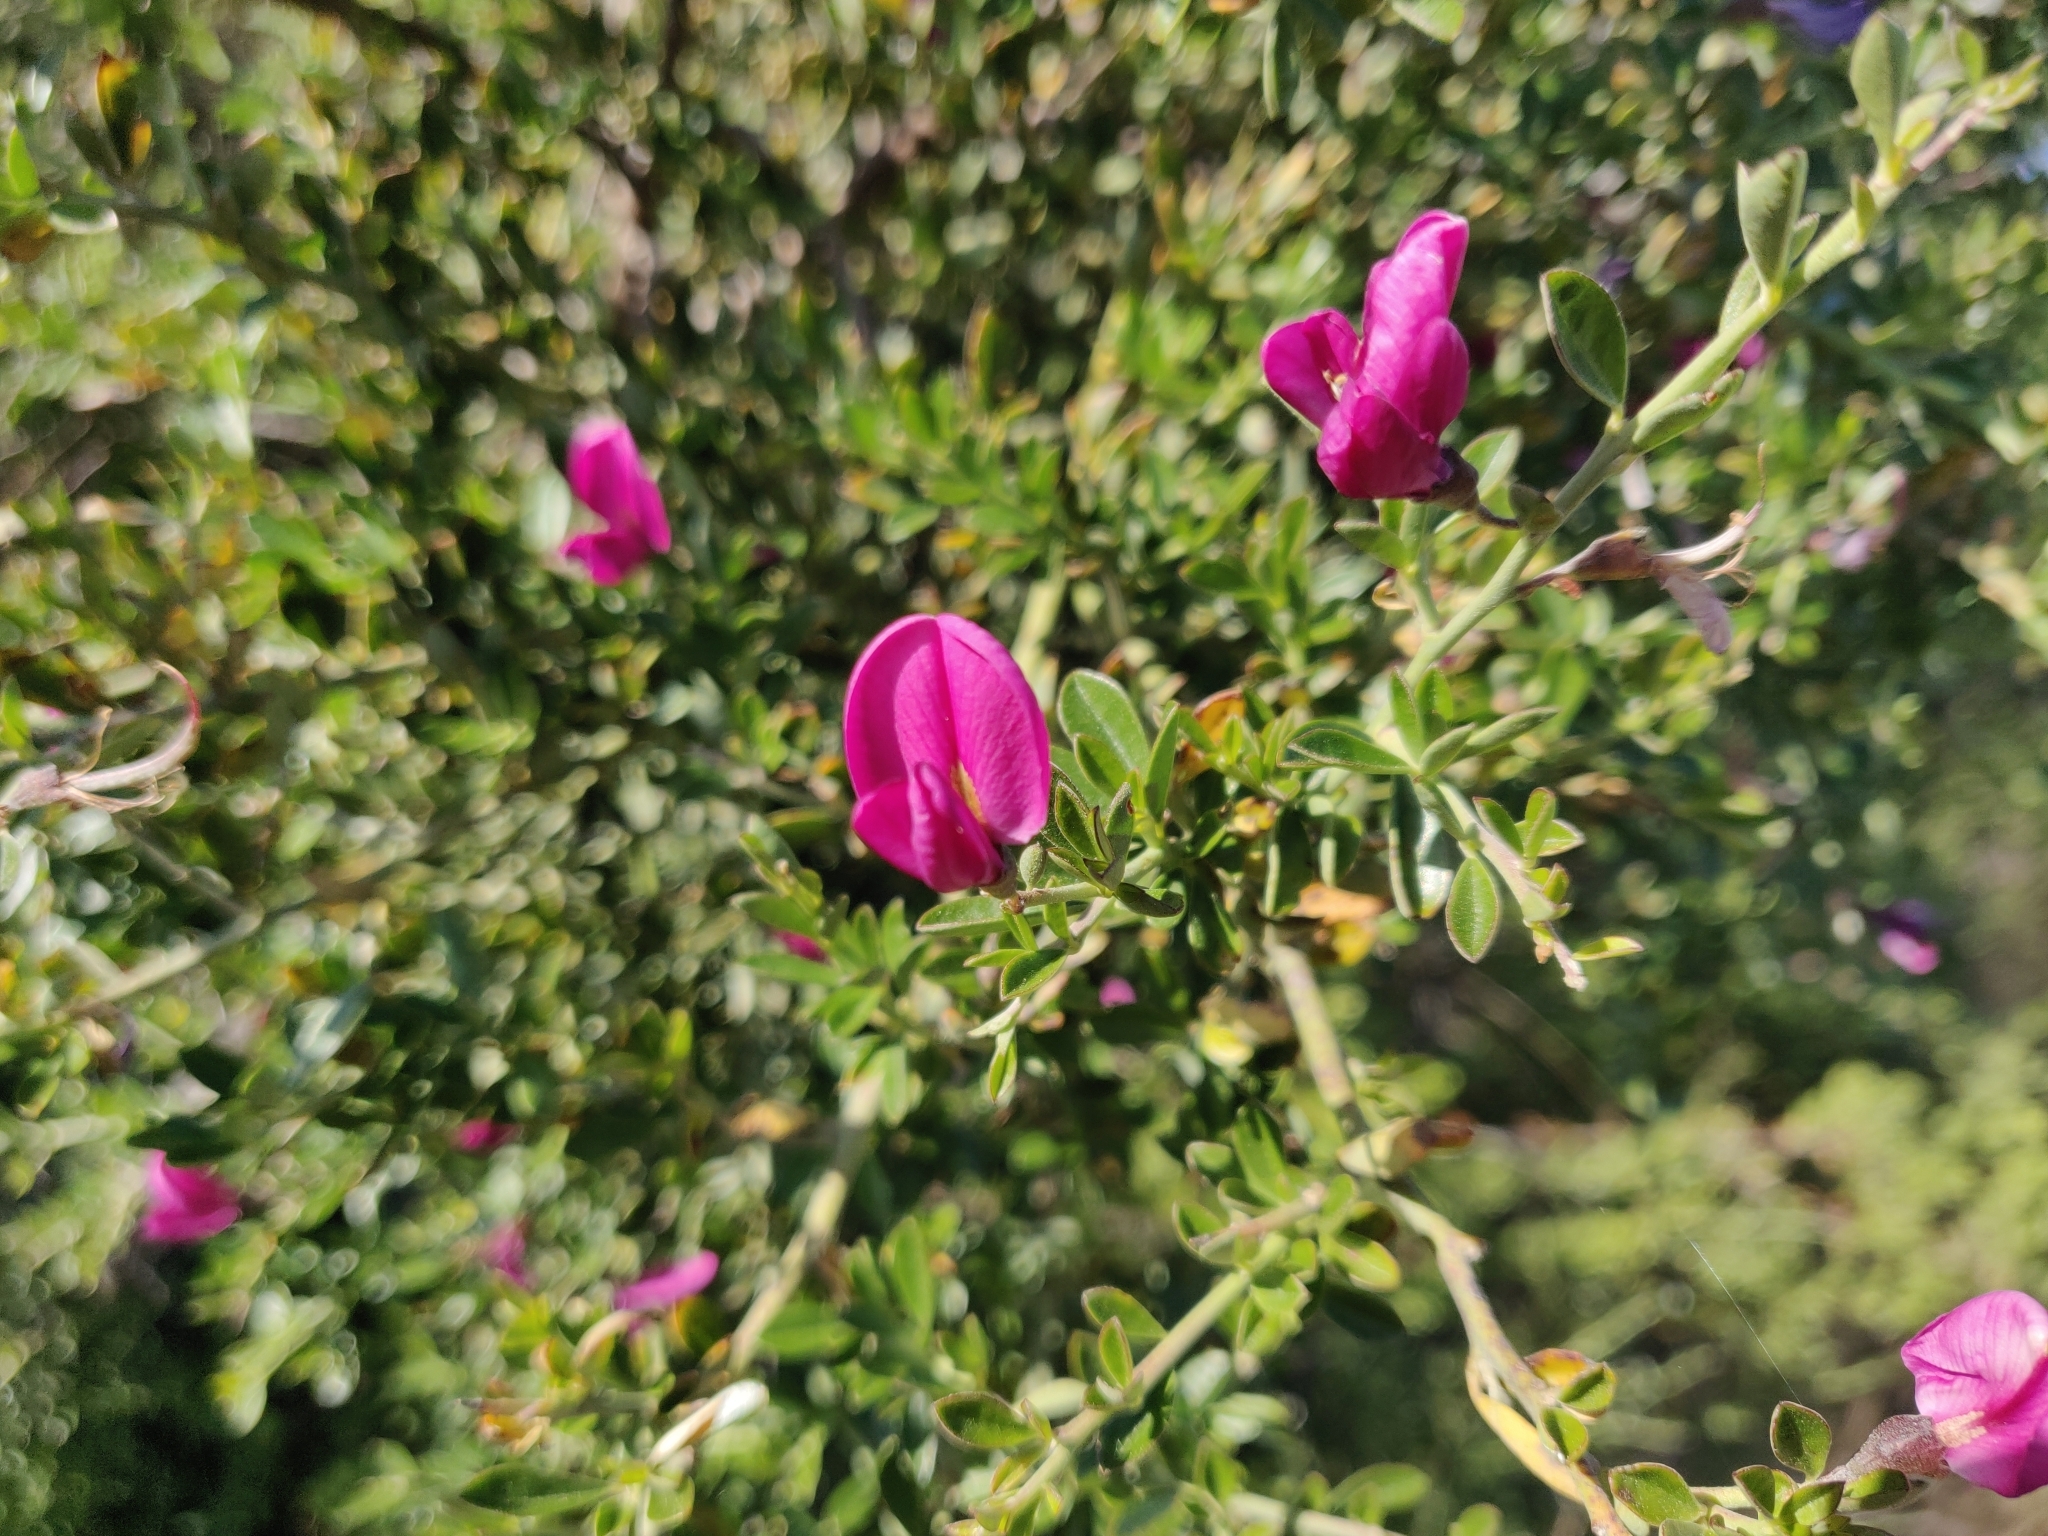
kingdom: Plantae
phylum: Tracheophyta
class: Magnoliopsida
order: Fabales
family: Fabaceae
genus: Pickeringia
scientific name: Pickeringia montana
